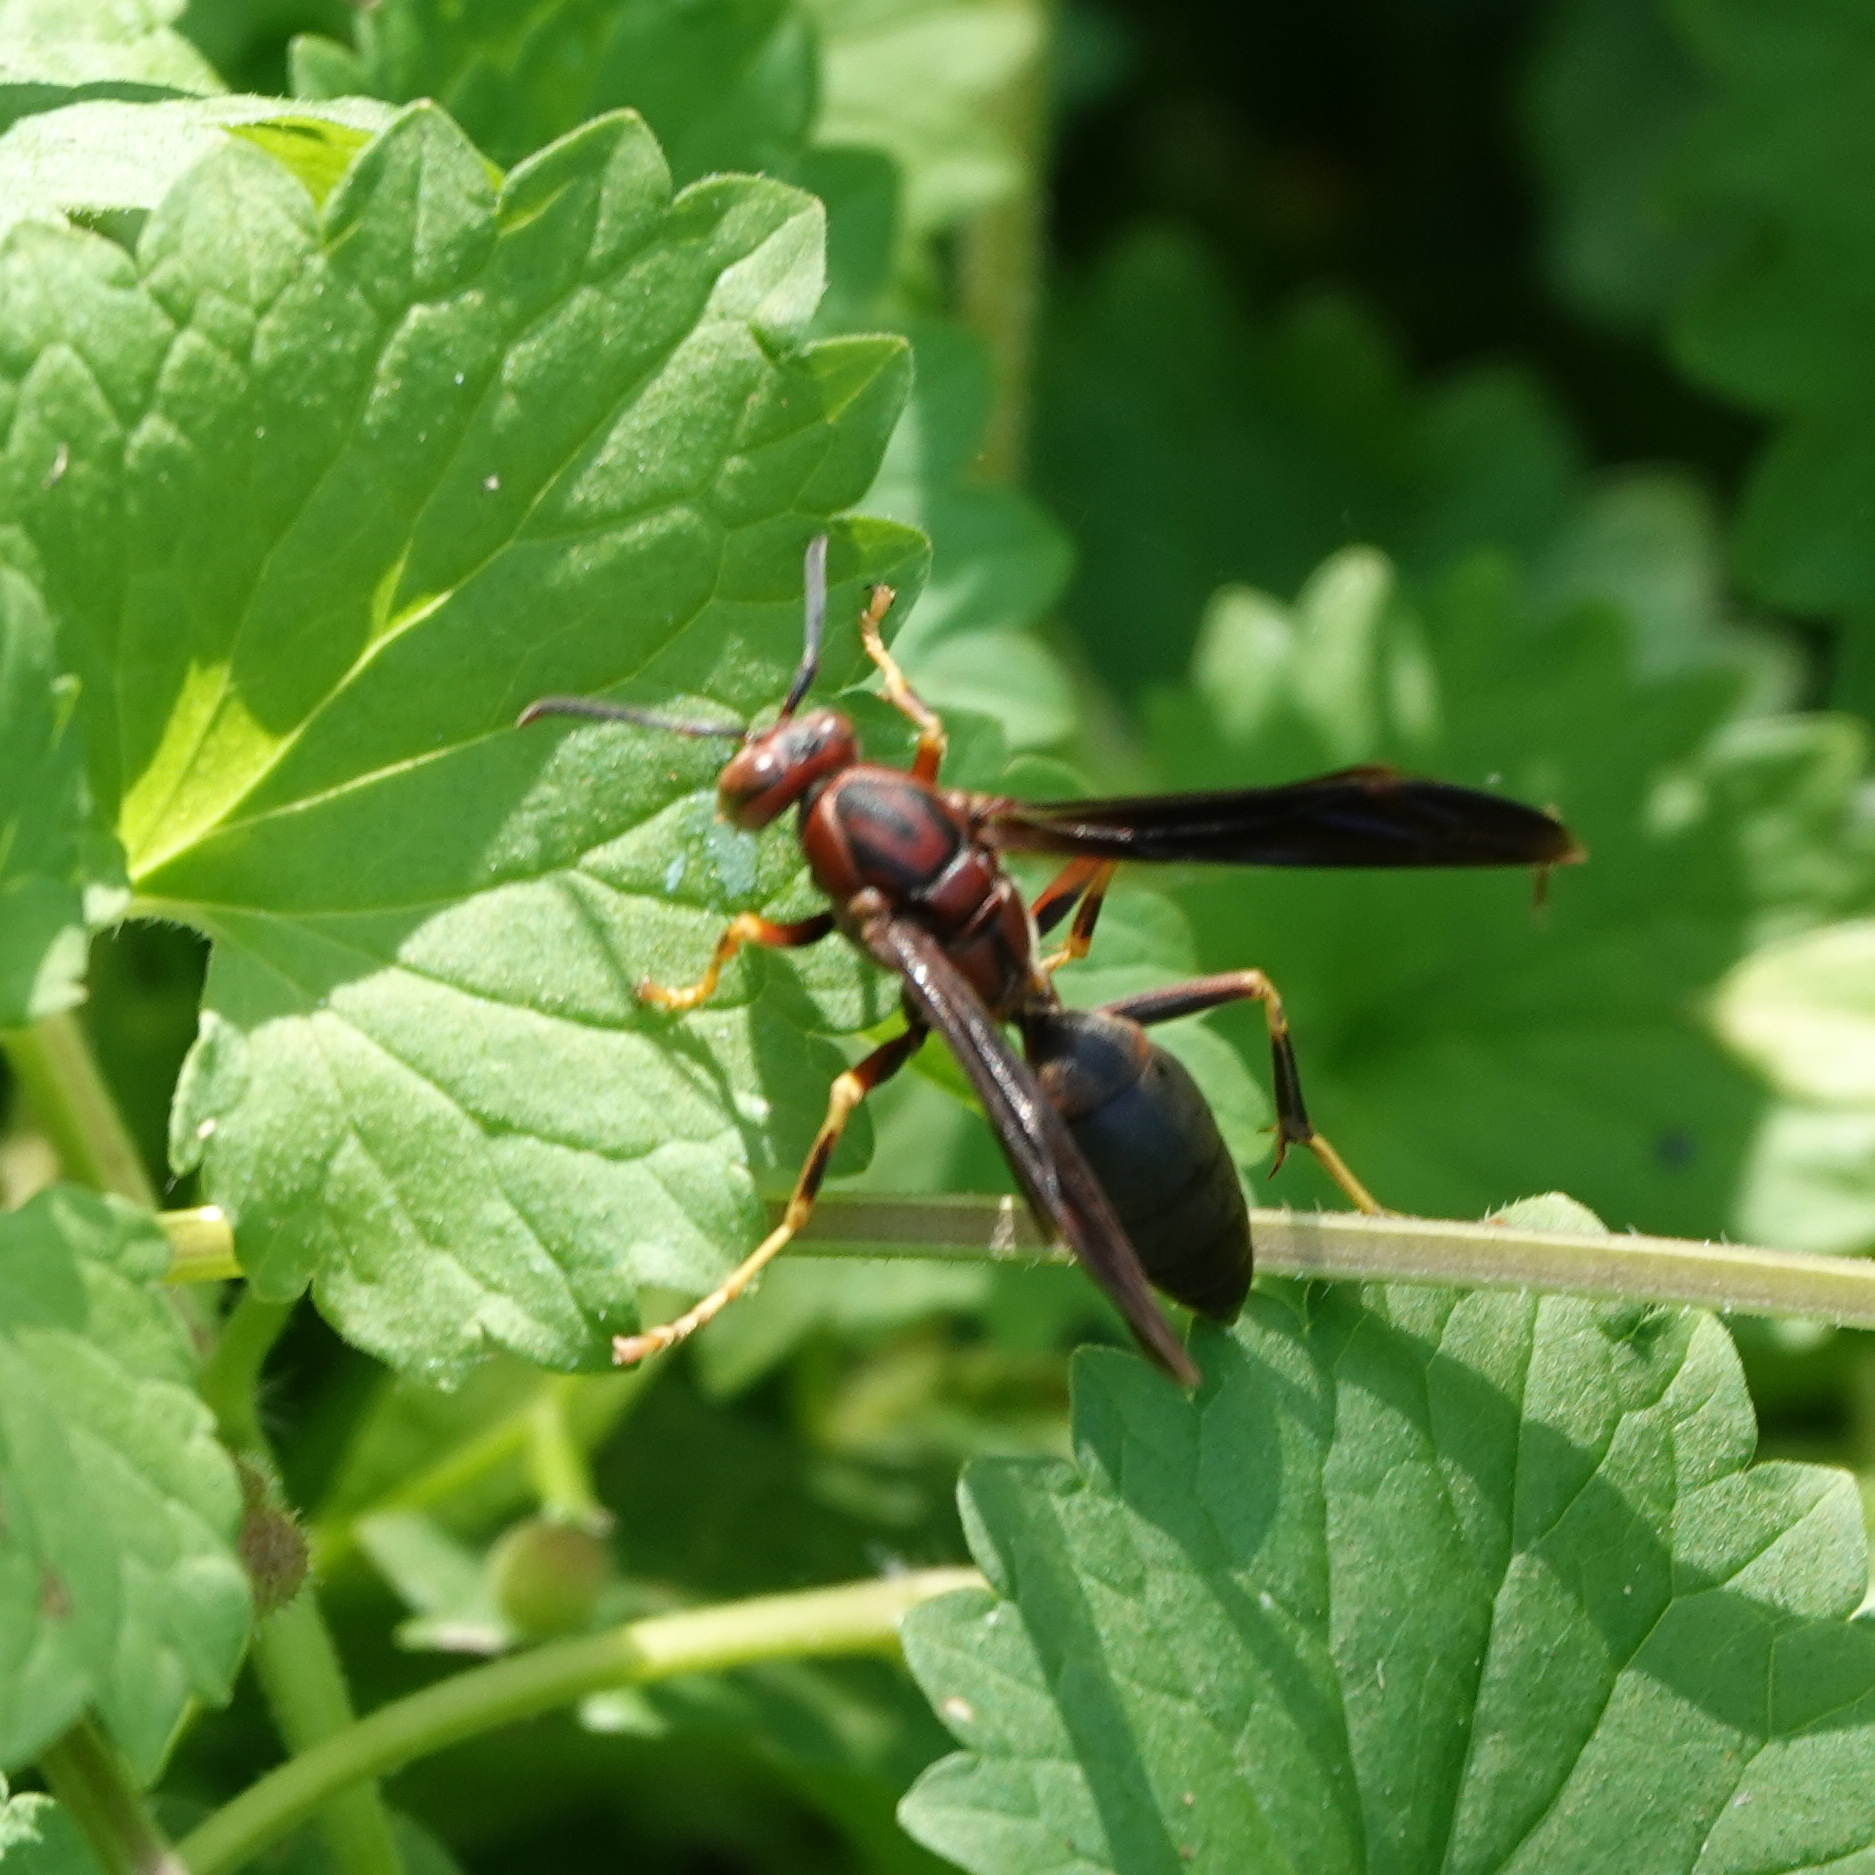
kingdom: Animalia
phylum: Arthropoda
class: Insecta
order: Hymenoptera
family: Eumenidae
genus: Polistes
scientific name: Polistes metricus
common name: Metric paper wasp
